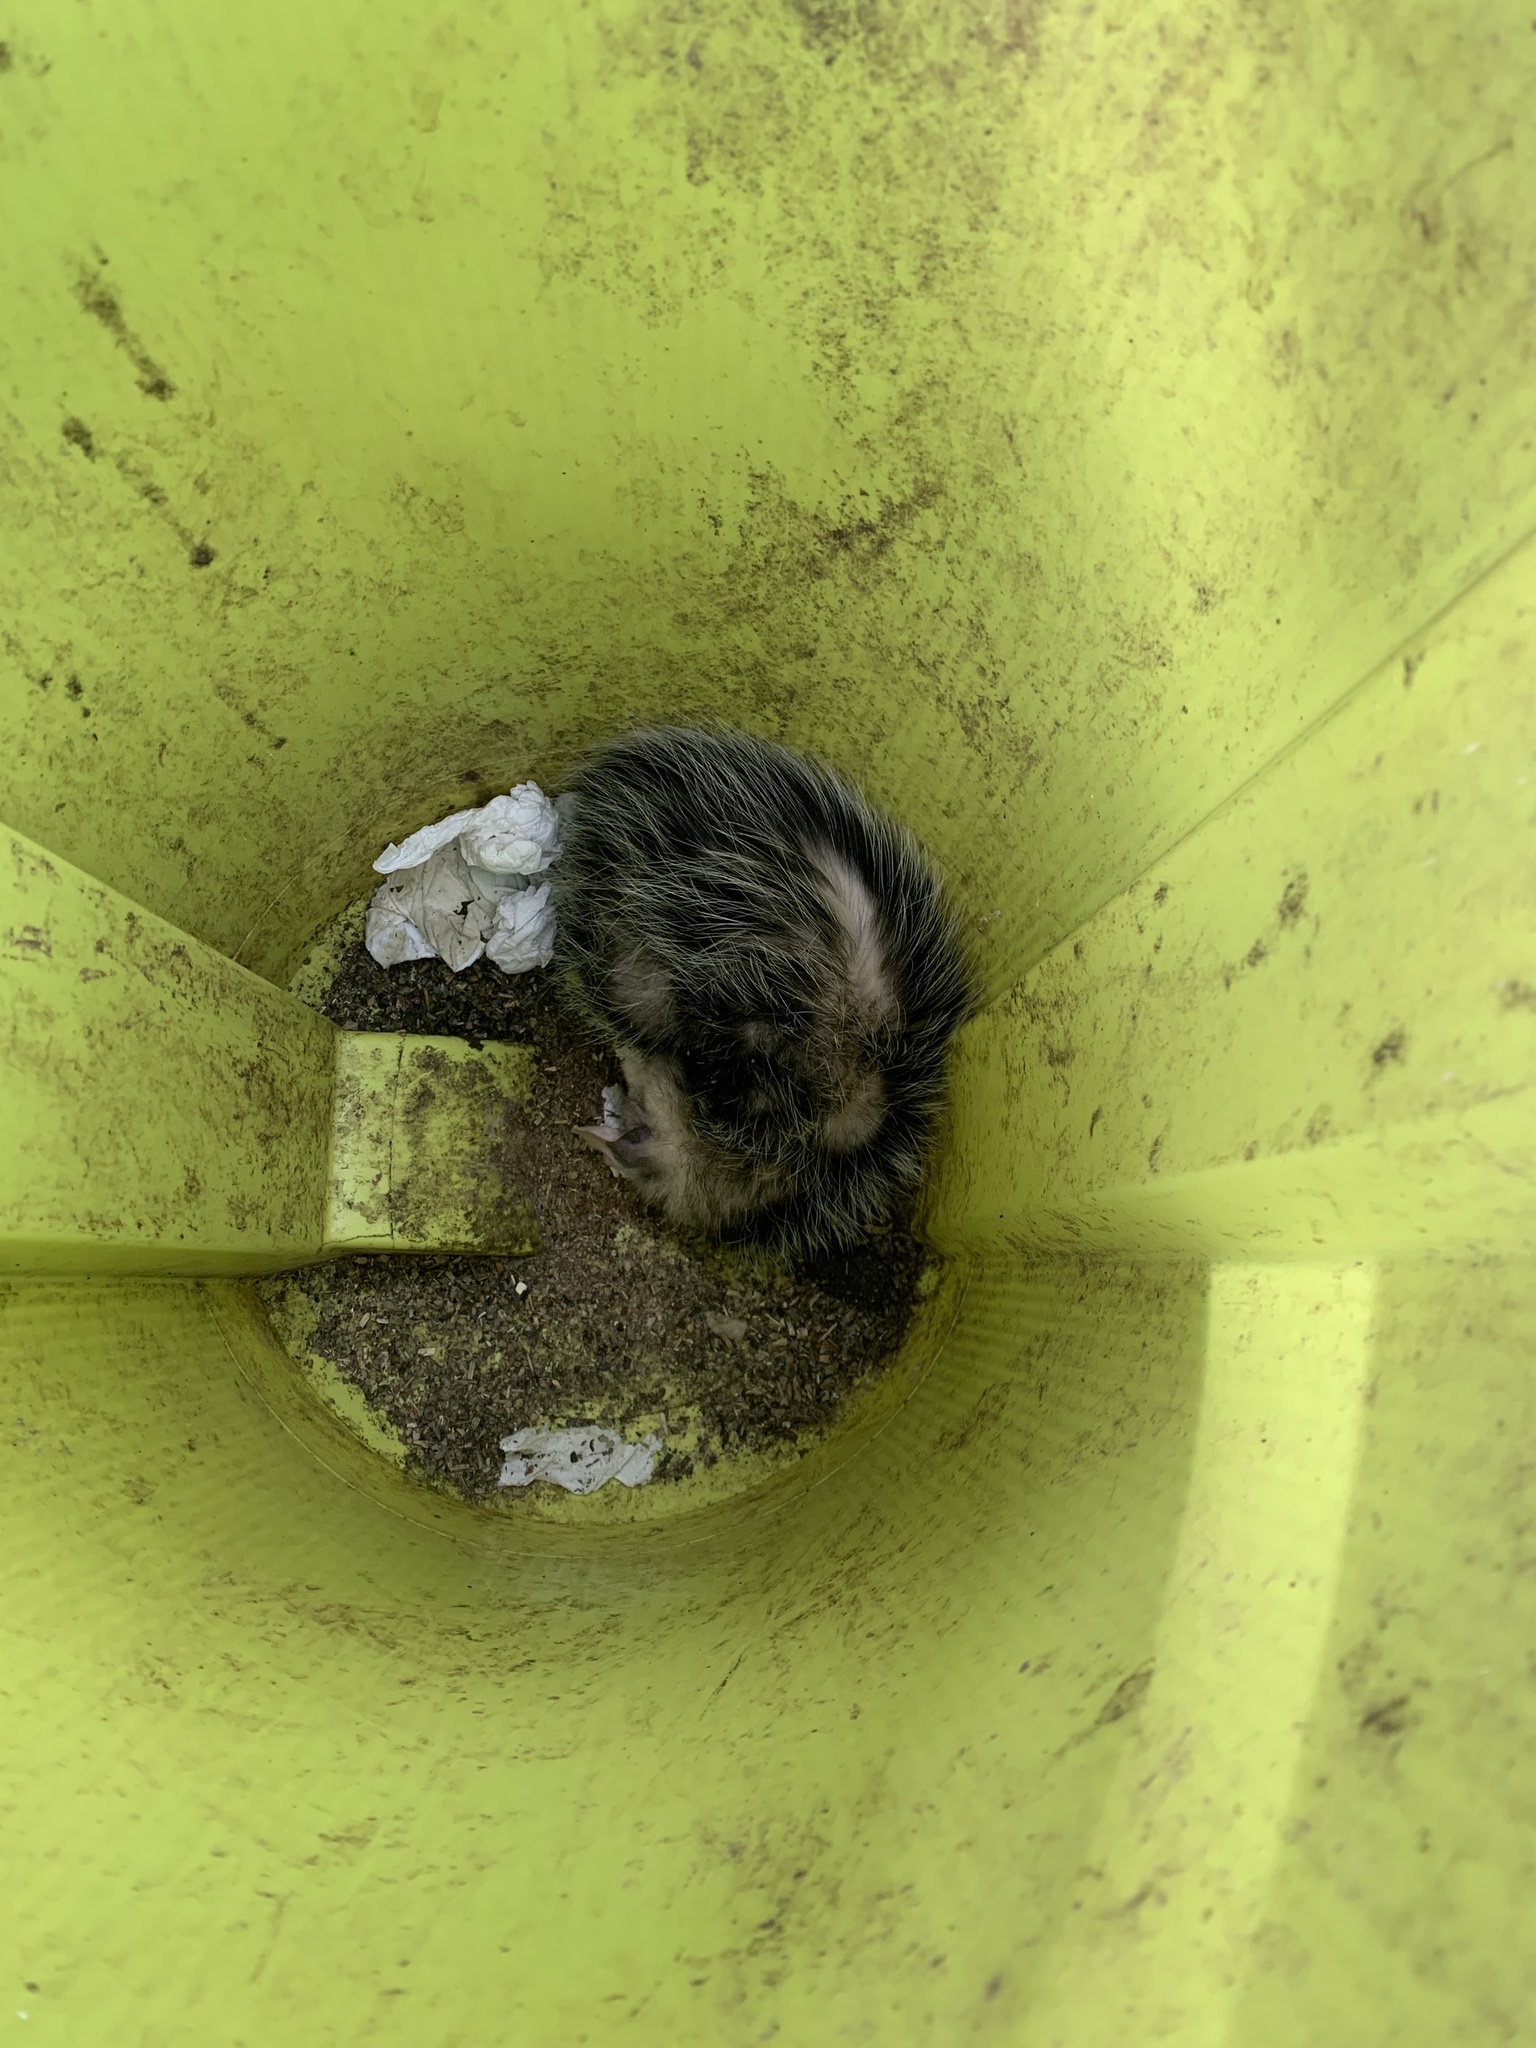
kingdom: Animalia
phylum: Chordata
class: Mammalia
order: Didelphimorphia
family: Didelphidae
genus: Didelphis
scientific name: Didelphis albiventris
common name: White-eared opossum
